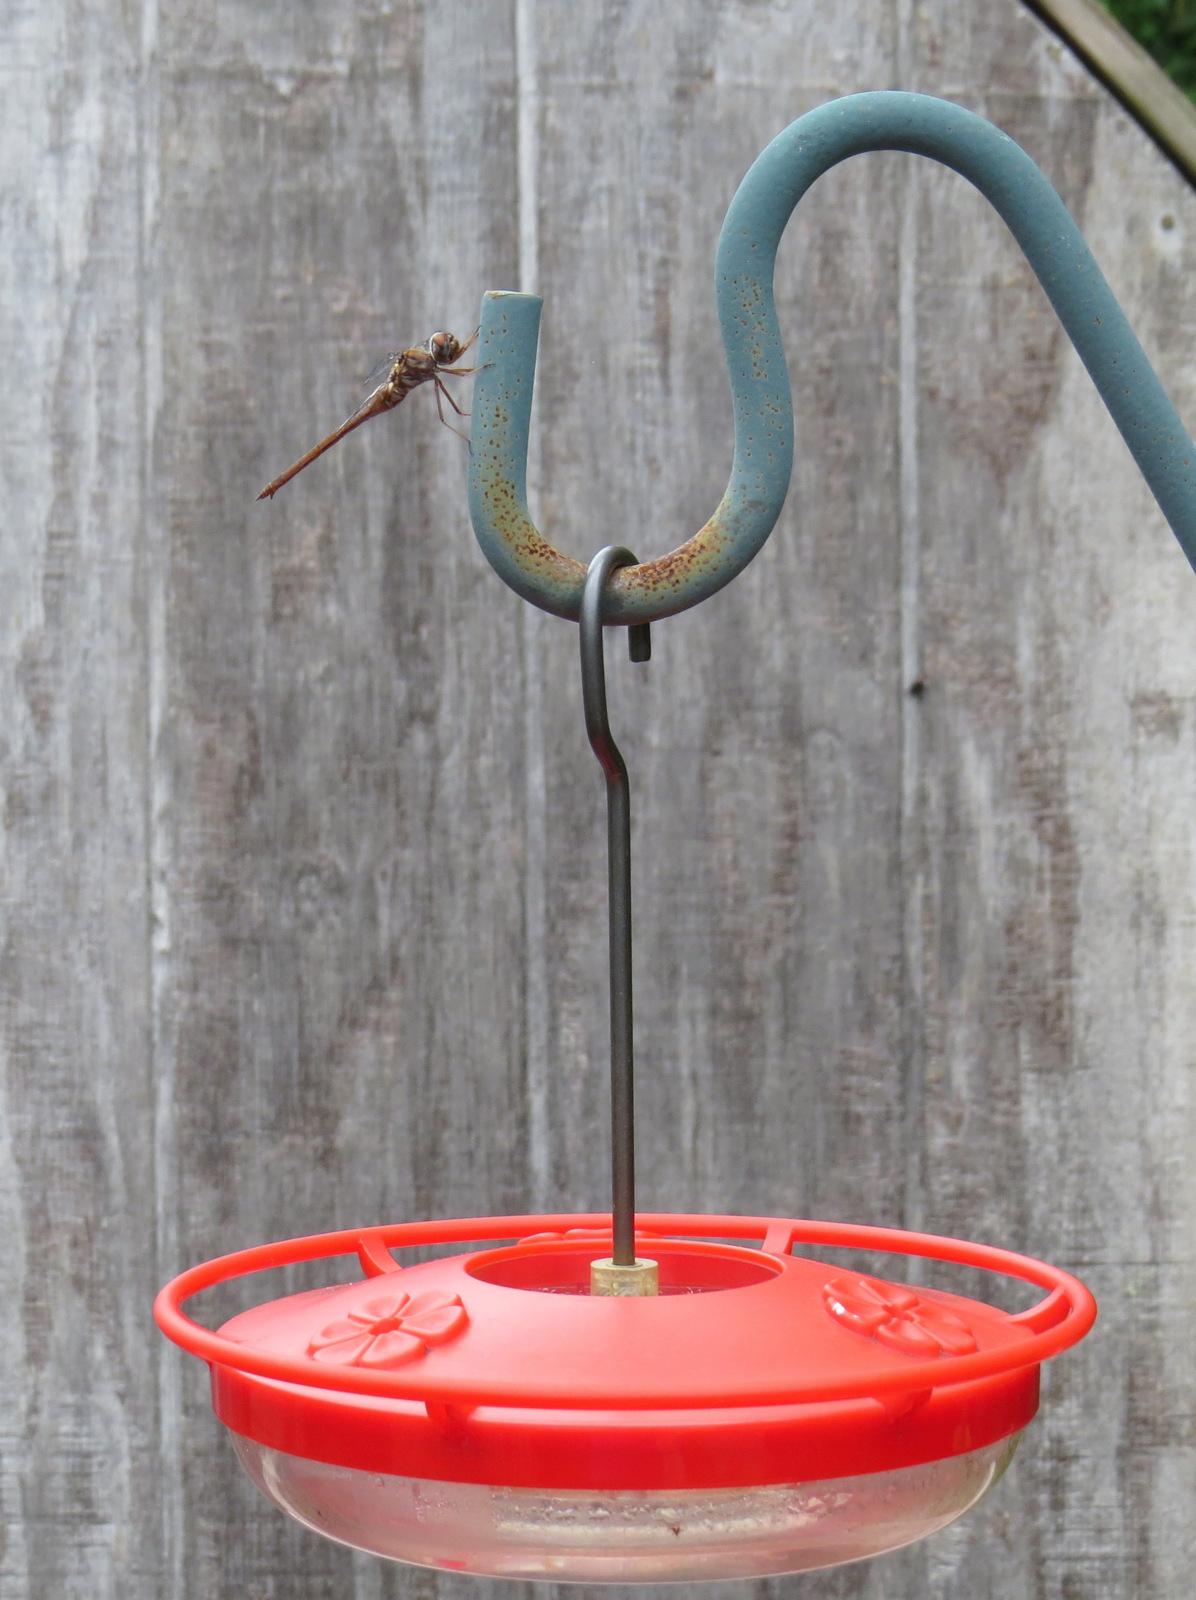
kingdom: Animalia
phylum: Arthropoda
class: Insecta
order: Odonata
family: Corduliidae
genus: Somatochlora
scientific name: Somatochlora georgiana
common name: Coppery emerald
